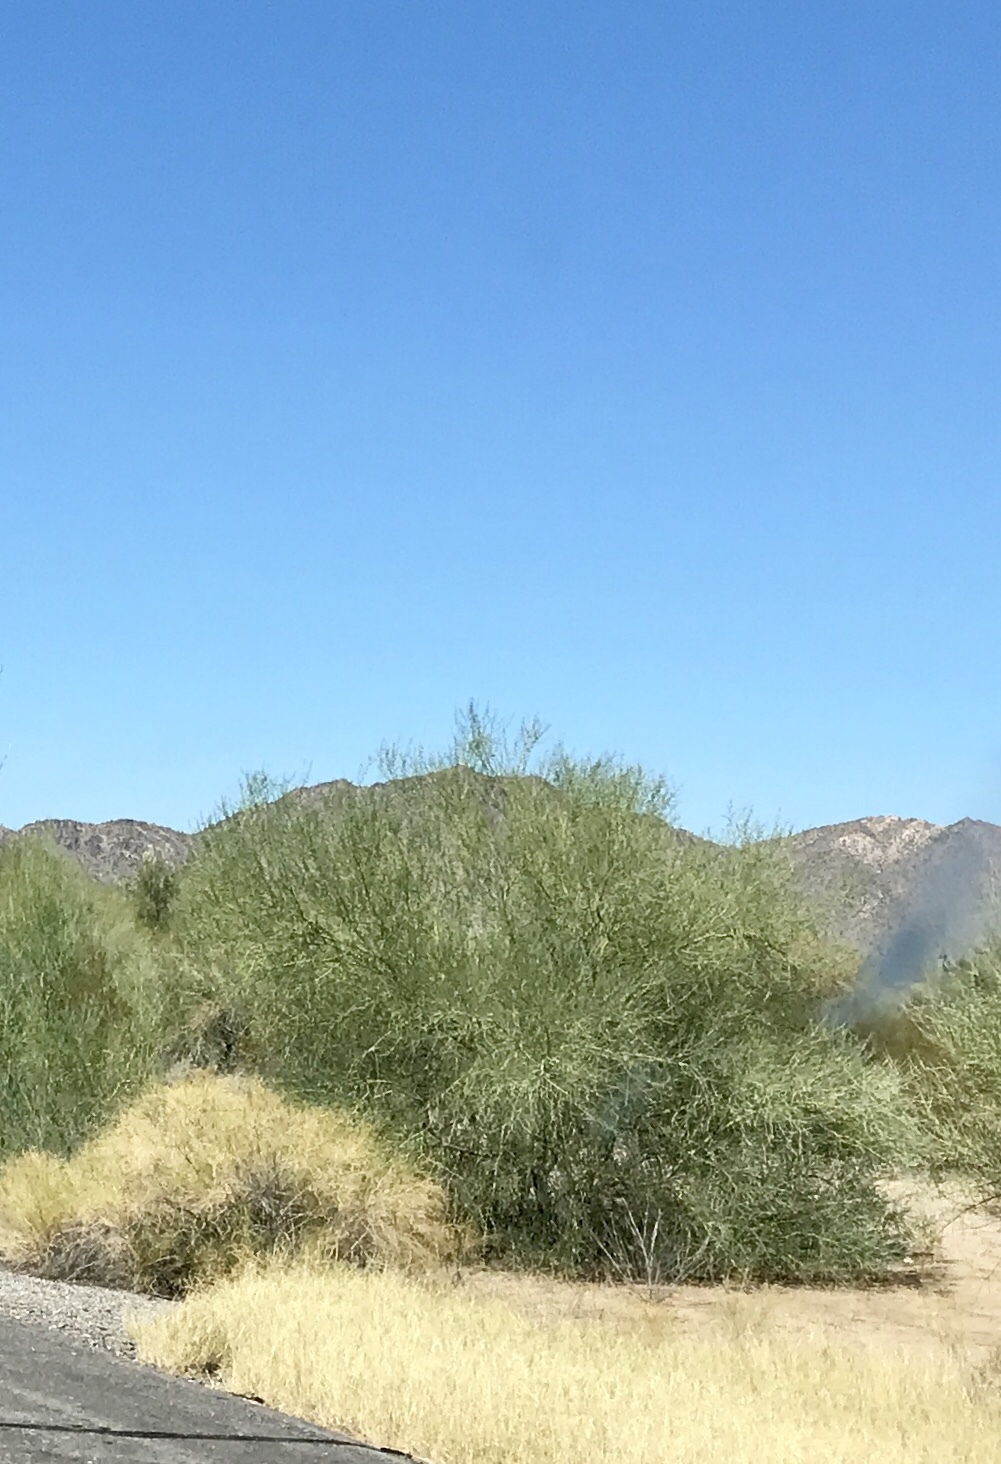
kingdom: Plantae
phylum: Tracheophyta
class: Magnoliopsida
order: Fabales
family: Fabaceae
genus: Parkinsonia
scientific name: Parkinsonia florida
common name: Blue paloverde
